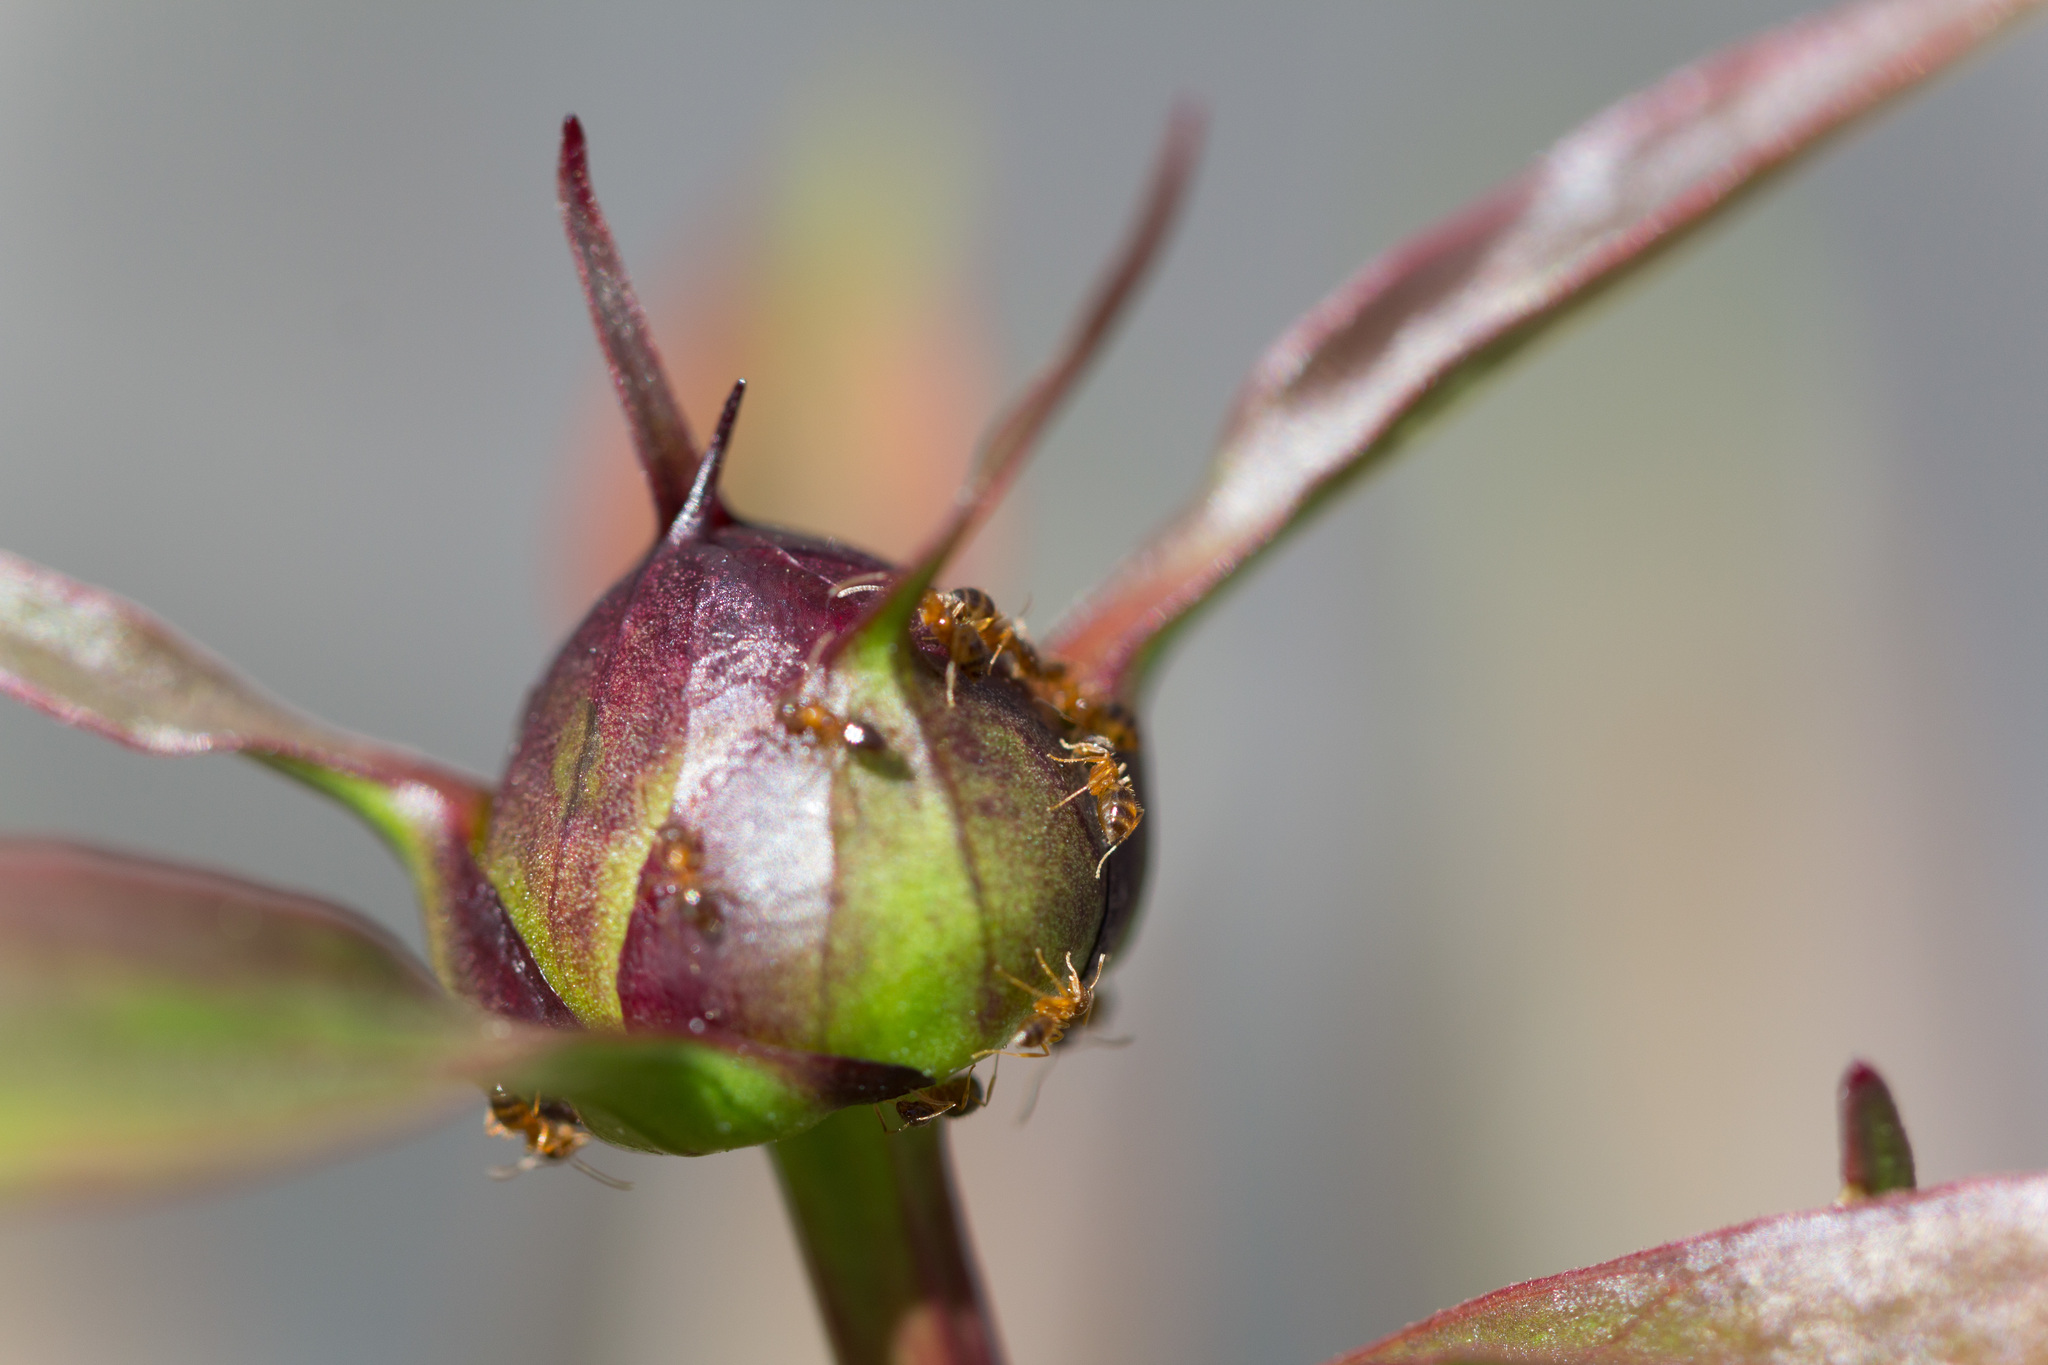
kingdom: Animalia
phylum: Arthropoda
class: Insecta
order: Hymenoptera
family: Formicidae
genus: Paratrechina
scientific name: Paratrechina flavipes
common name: Eastern asian formicine ant
